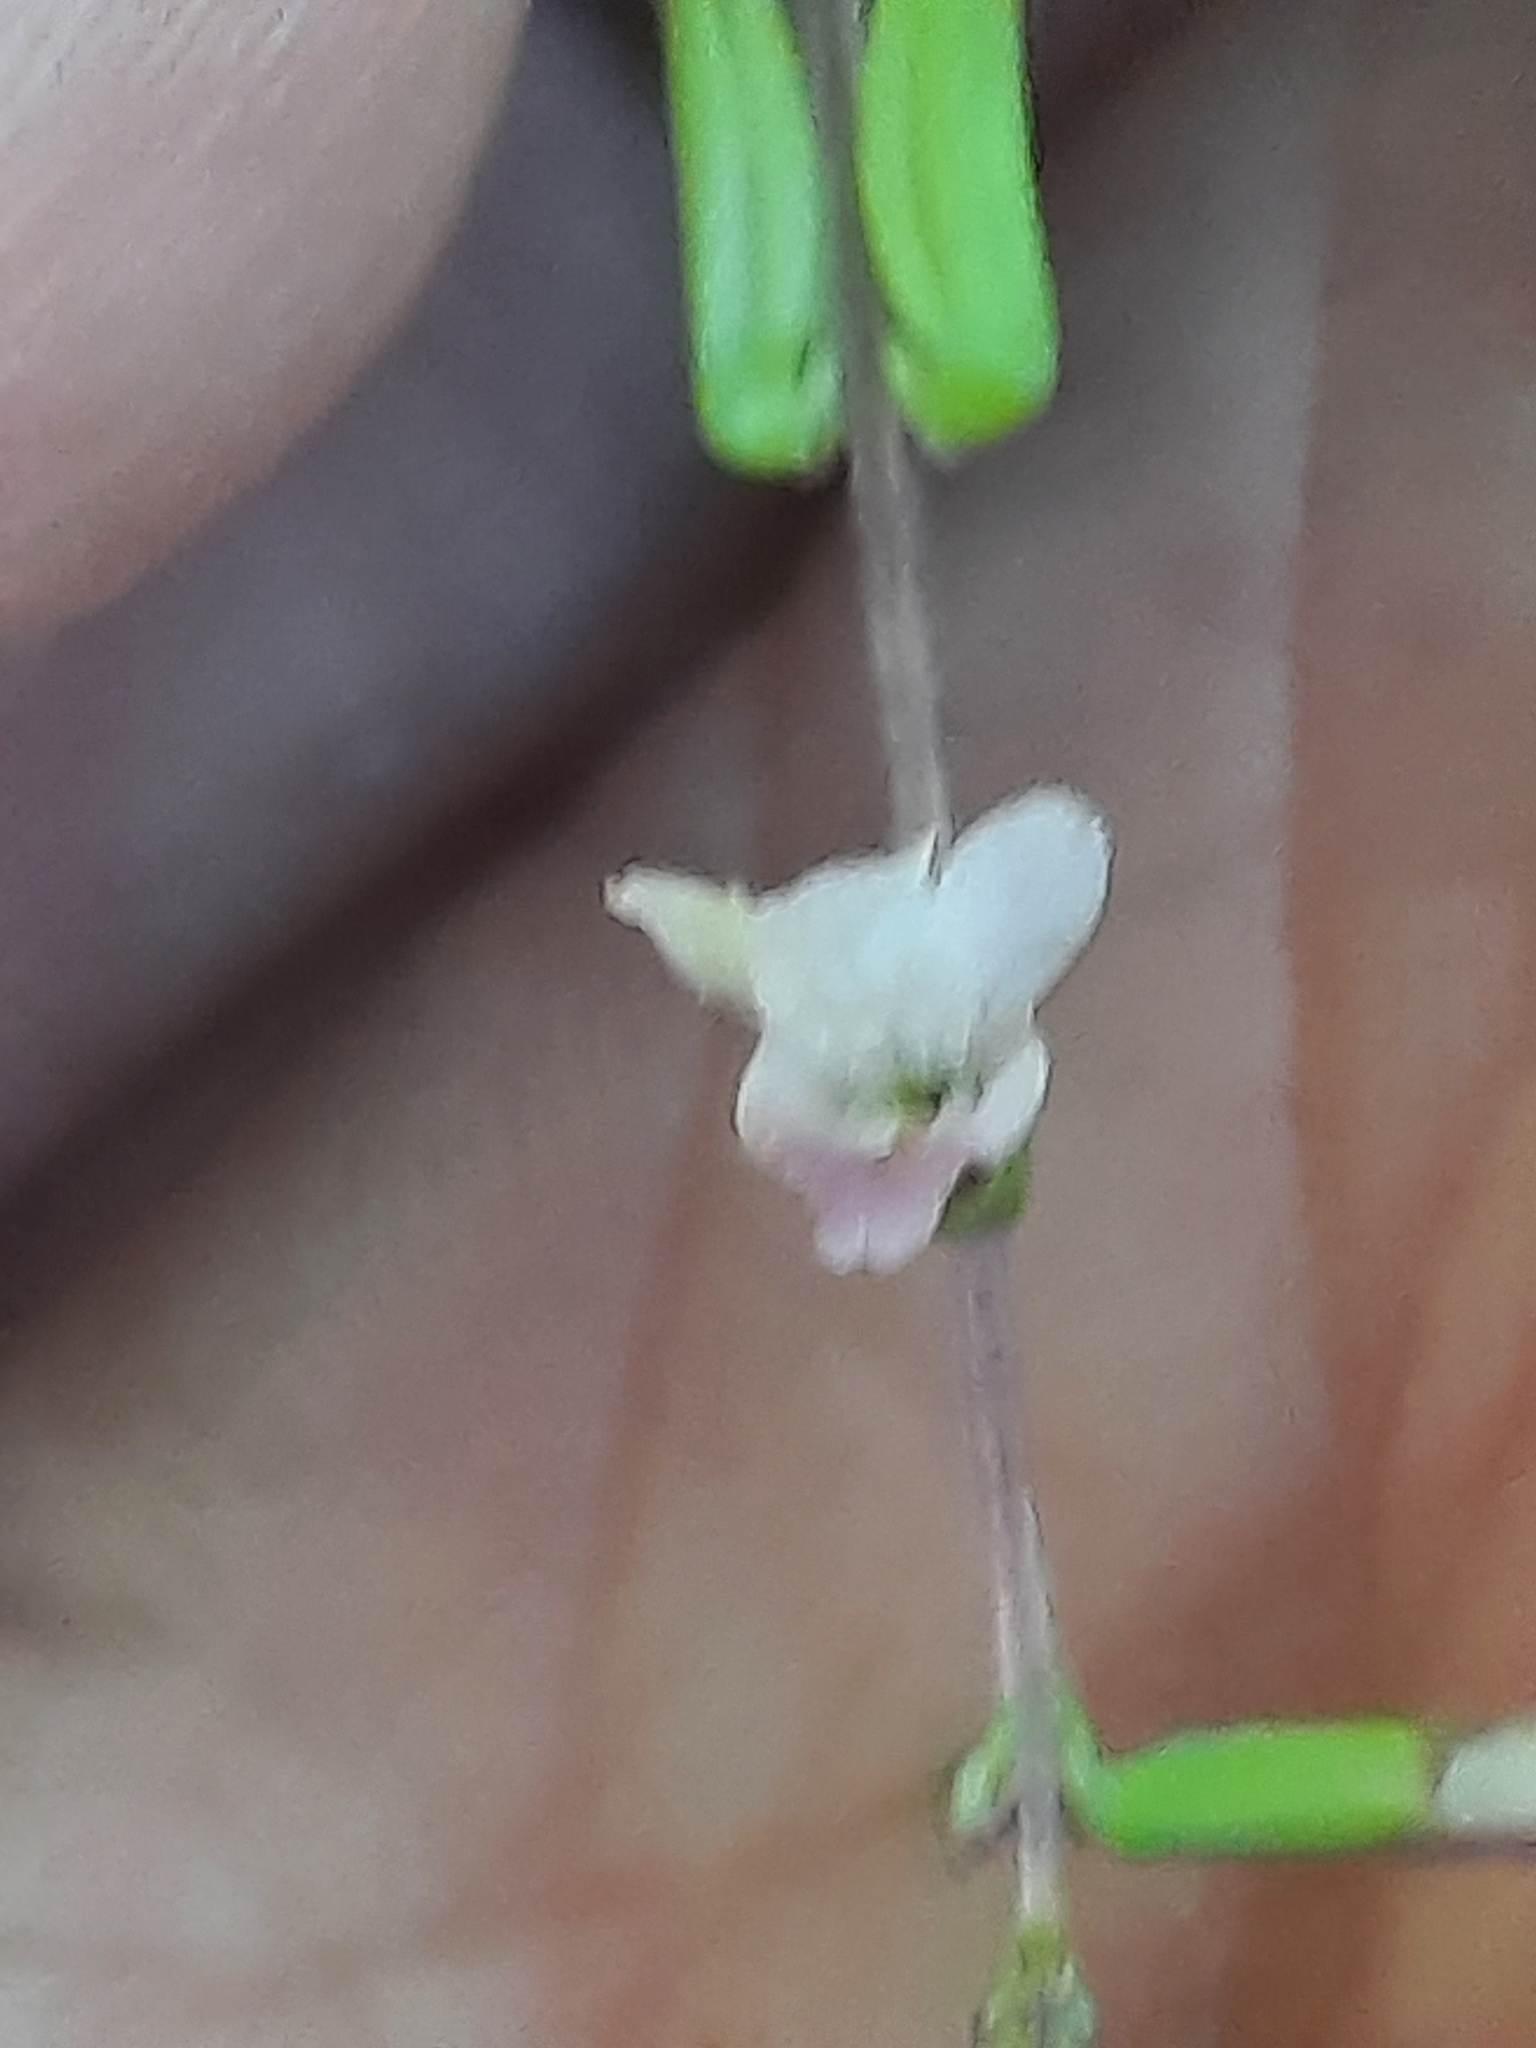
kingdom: Plantae
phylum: Tracheophyta
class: Magnoliopsida
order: Lamiales
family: Phrymaceae
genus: Phryma
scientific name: Phryma leptostachya
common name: American lopseed
